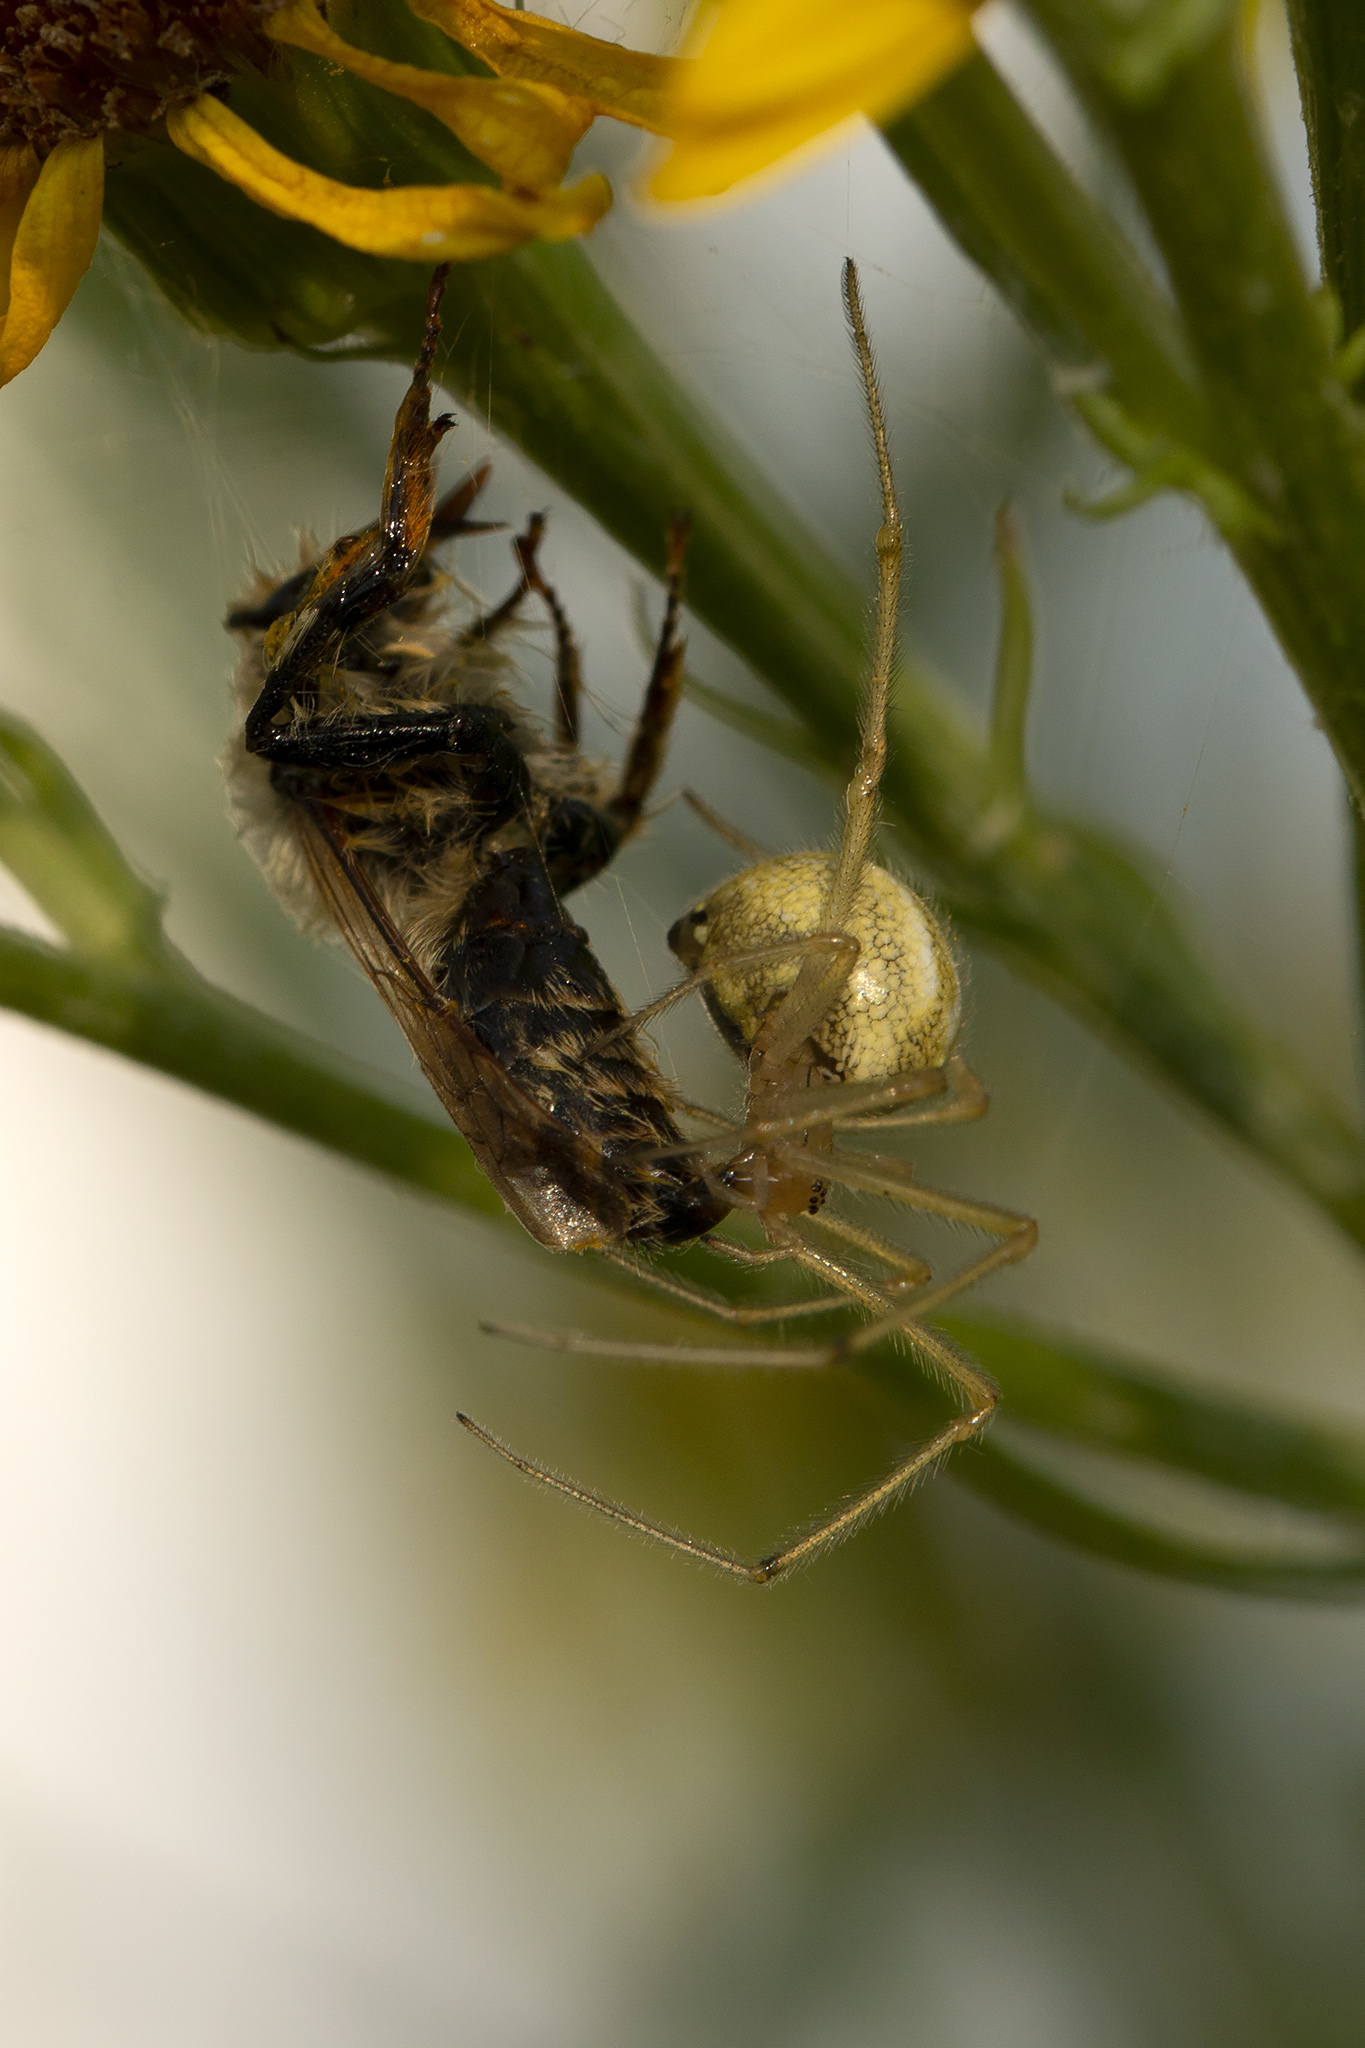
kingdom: Animalia
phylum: Arthropoda
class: Arachnida
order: Araneae
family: Theridiidae
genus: Enoplognatha
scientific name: Enoplognatha ovata
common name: Common candy-striped spider
